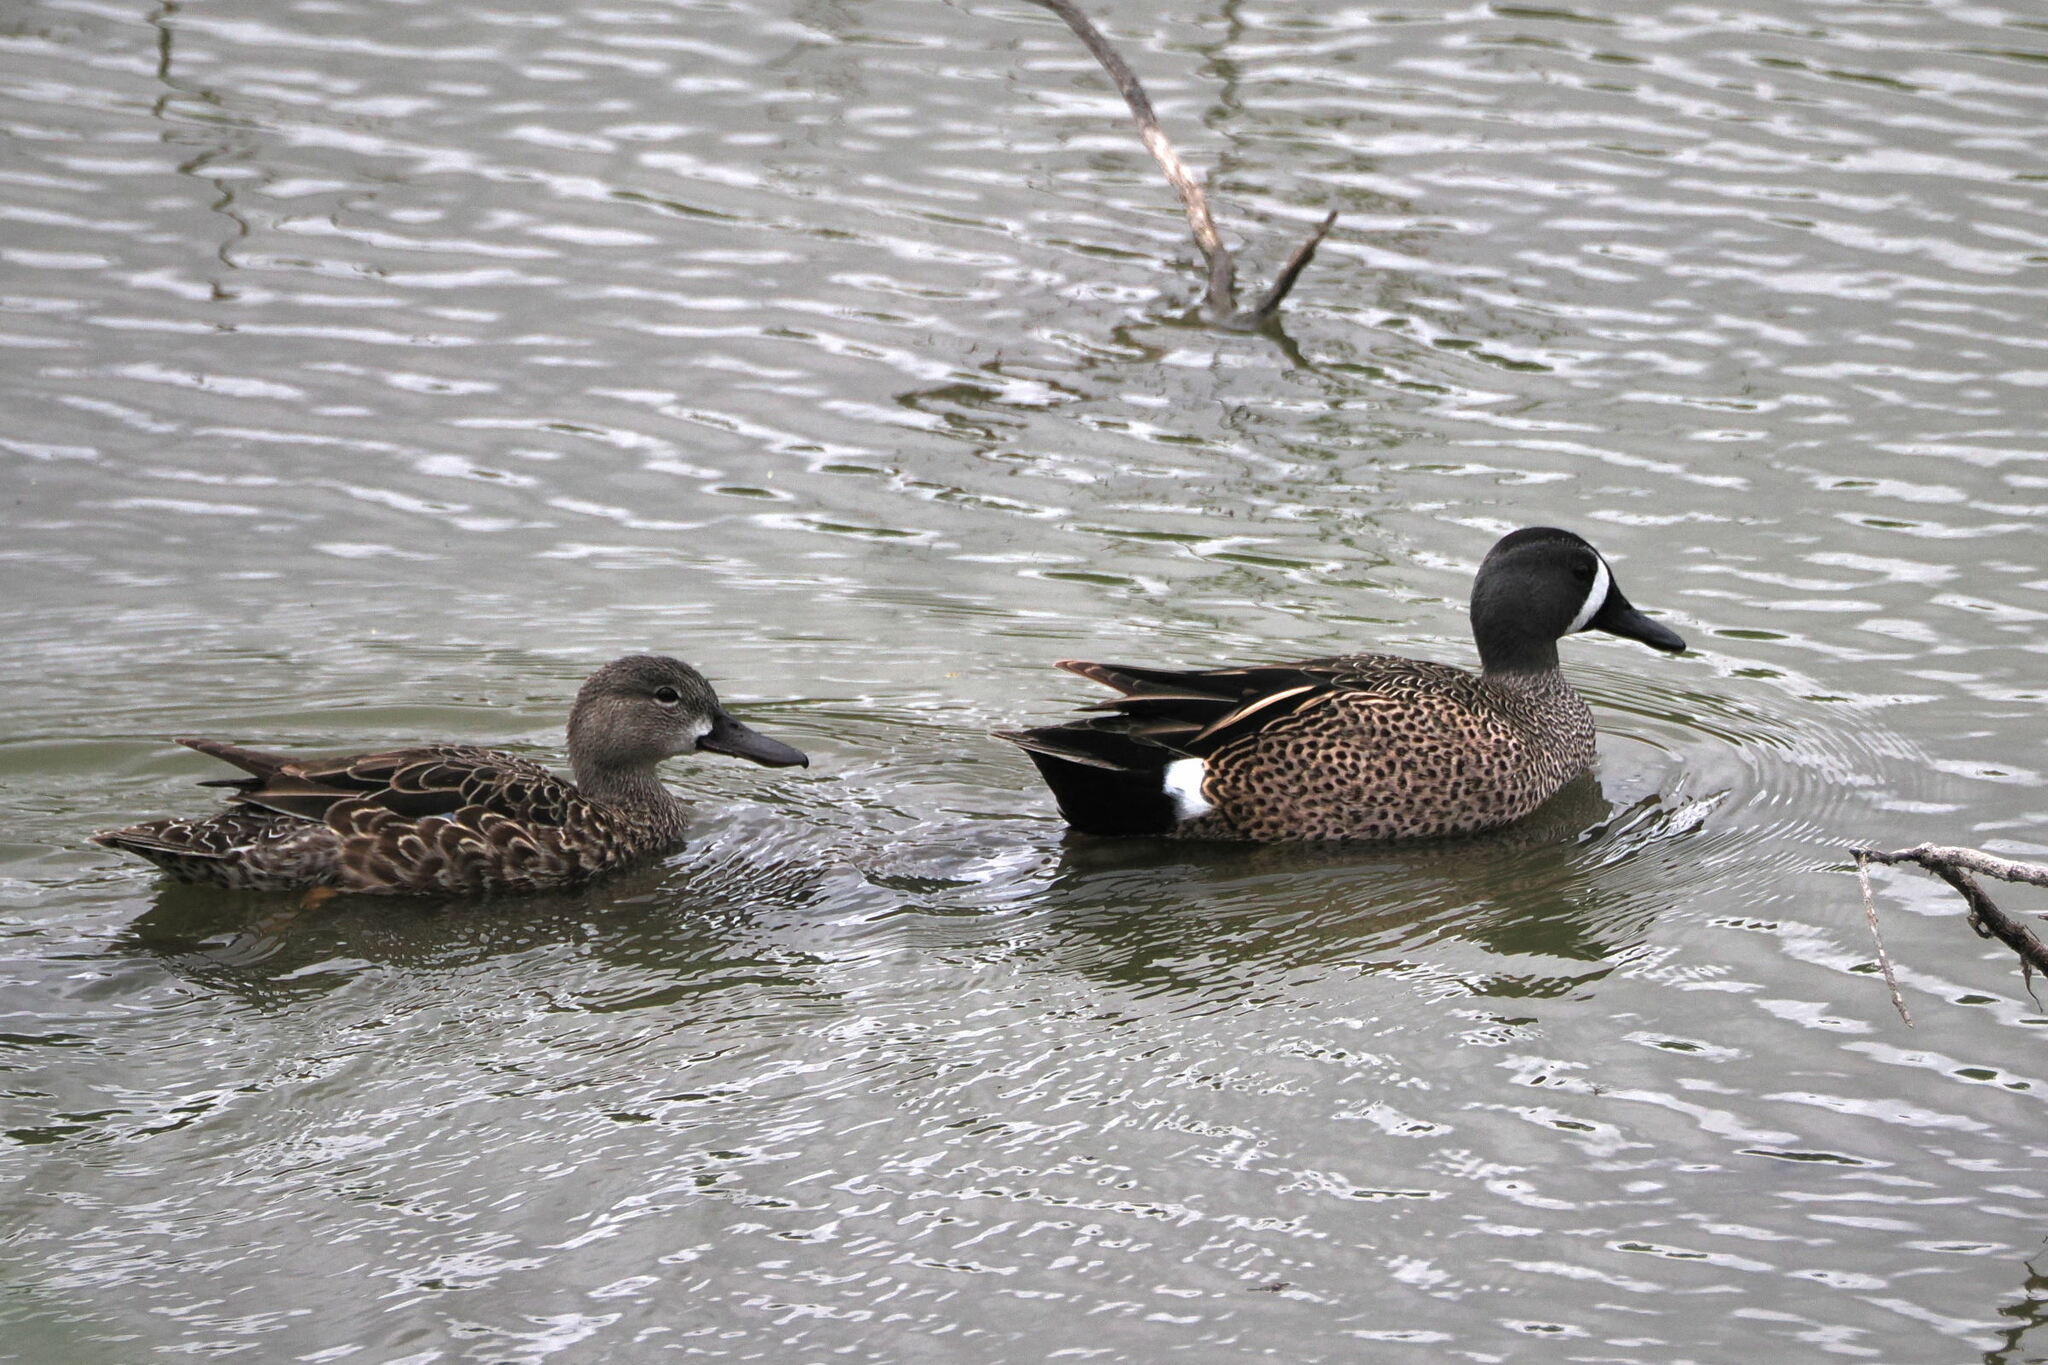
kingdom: Animalia
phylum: Chordata
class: Aves
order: Anseriformes
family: Anatidae
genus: Spatula
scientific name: Spatula discors
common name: Blue-winged teal
